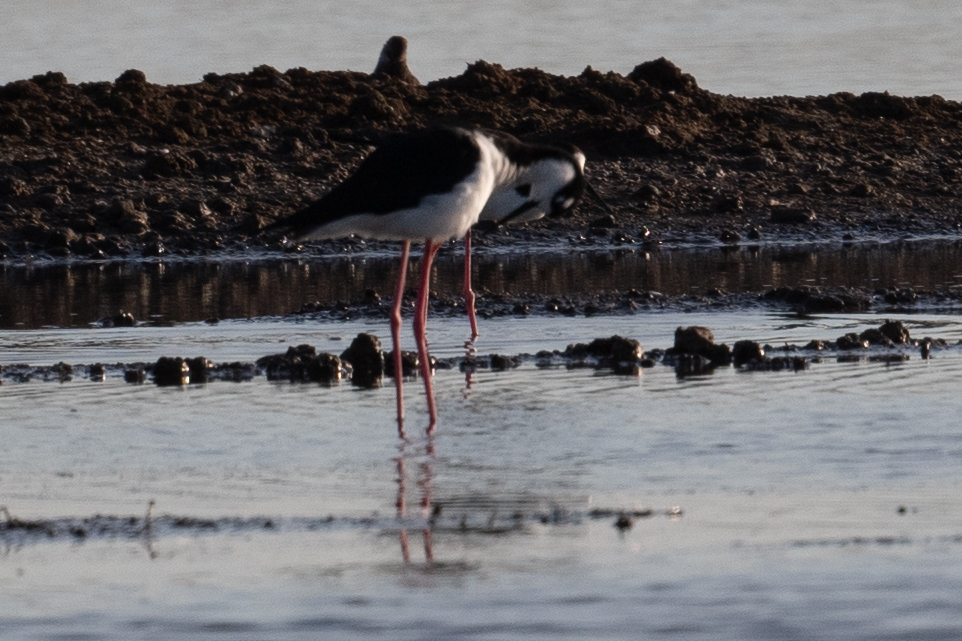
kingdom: Animalia
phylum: Chordata
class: Aves
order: Charadriiformes
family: Recurvirostridae
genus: Himantopus
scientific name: Himantopus mexicanus
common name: Black-necked stilt
